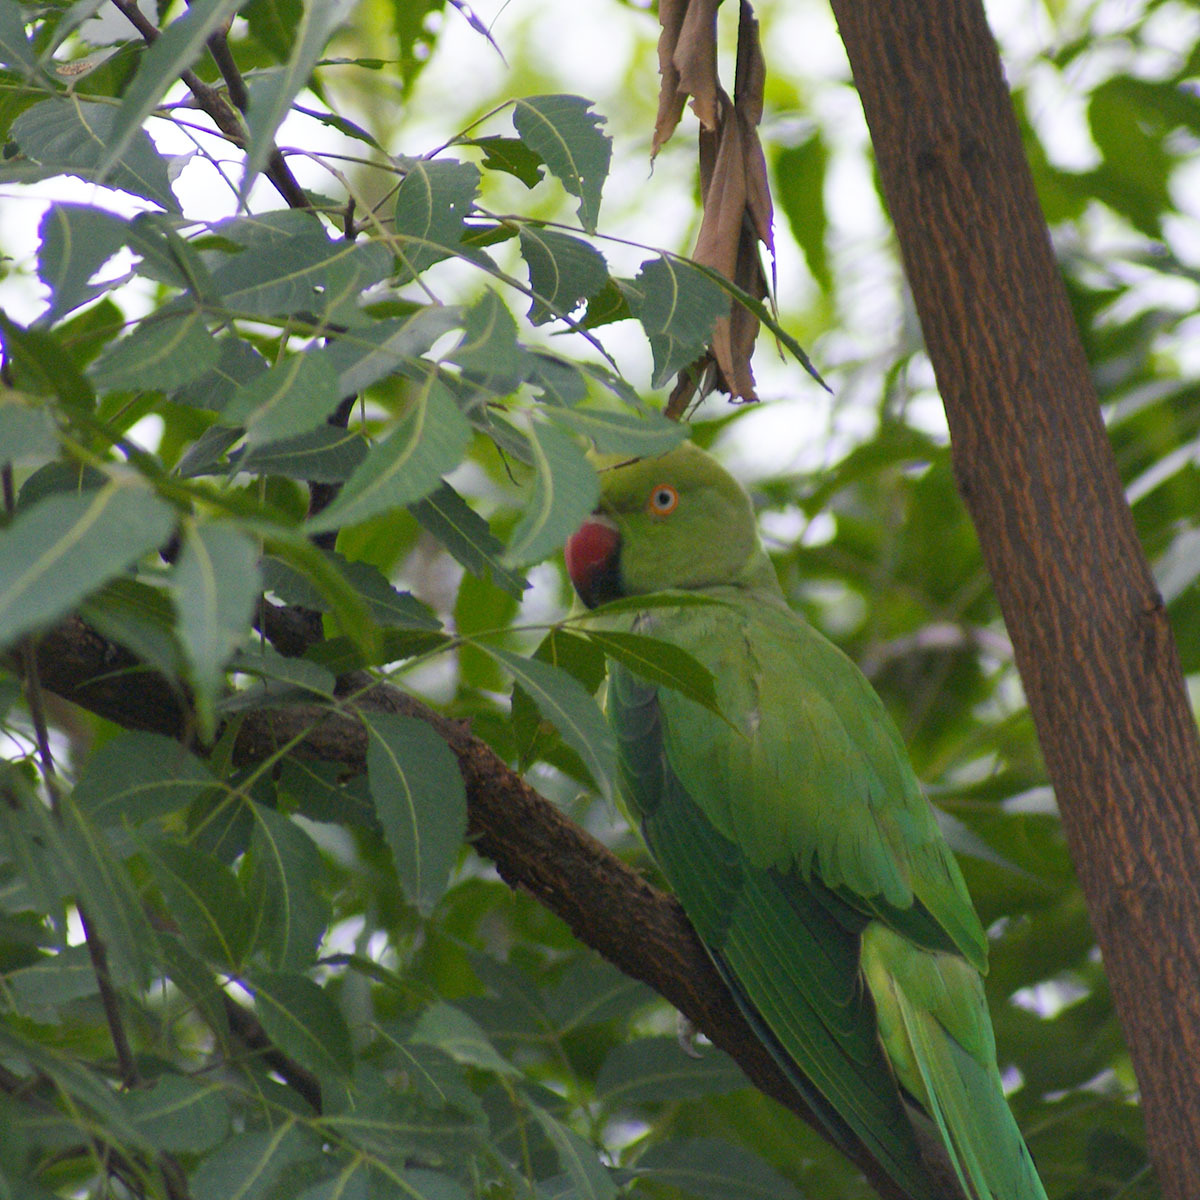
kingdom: Animalia
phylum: Chordata
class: Aves
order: Psittaciformes
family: Psittacidae
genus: Psittacula
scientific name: Psittacula krameri
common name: Rose-ringed parakeet
